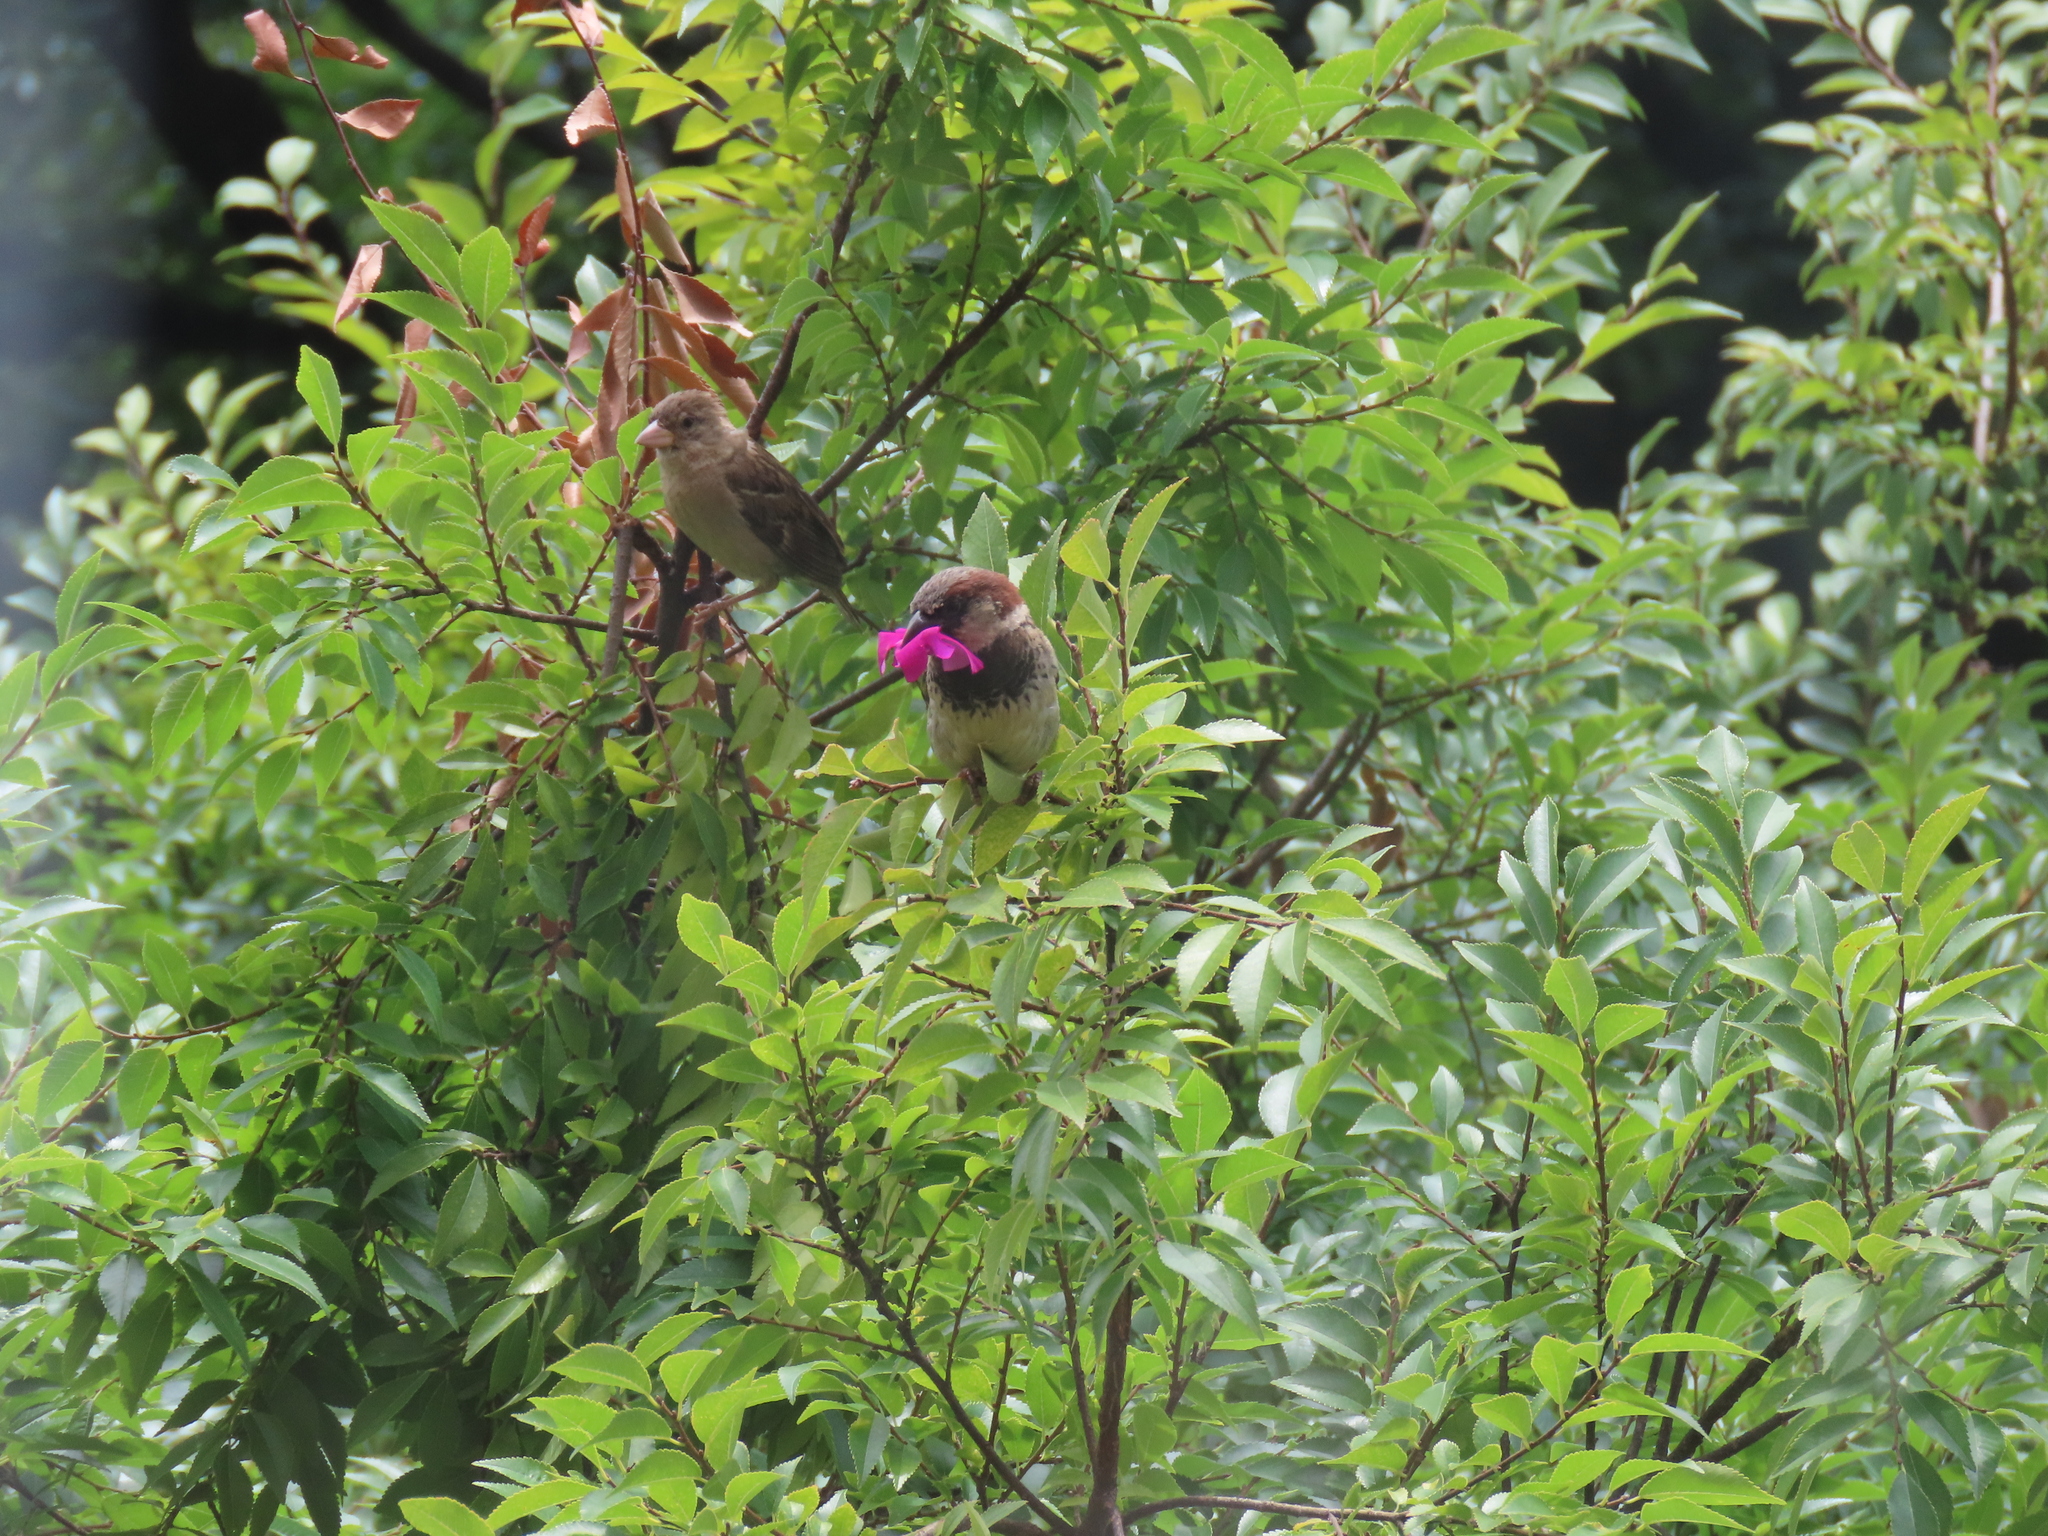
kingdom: Animalia
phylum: Chordata
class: Aves
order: Passeriformes
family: Passeridae
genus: Passer
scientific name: Passer domesticus
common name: House sparrow
